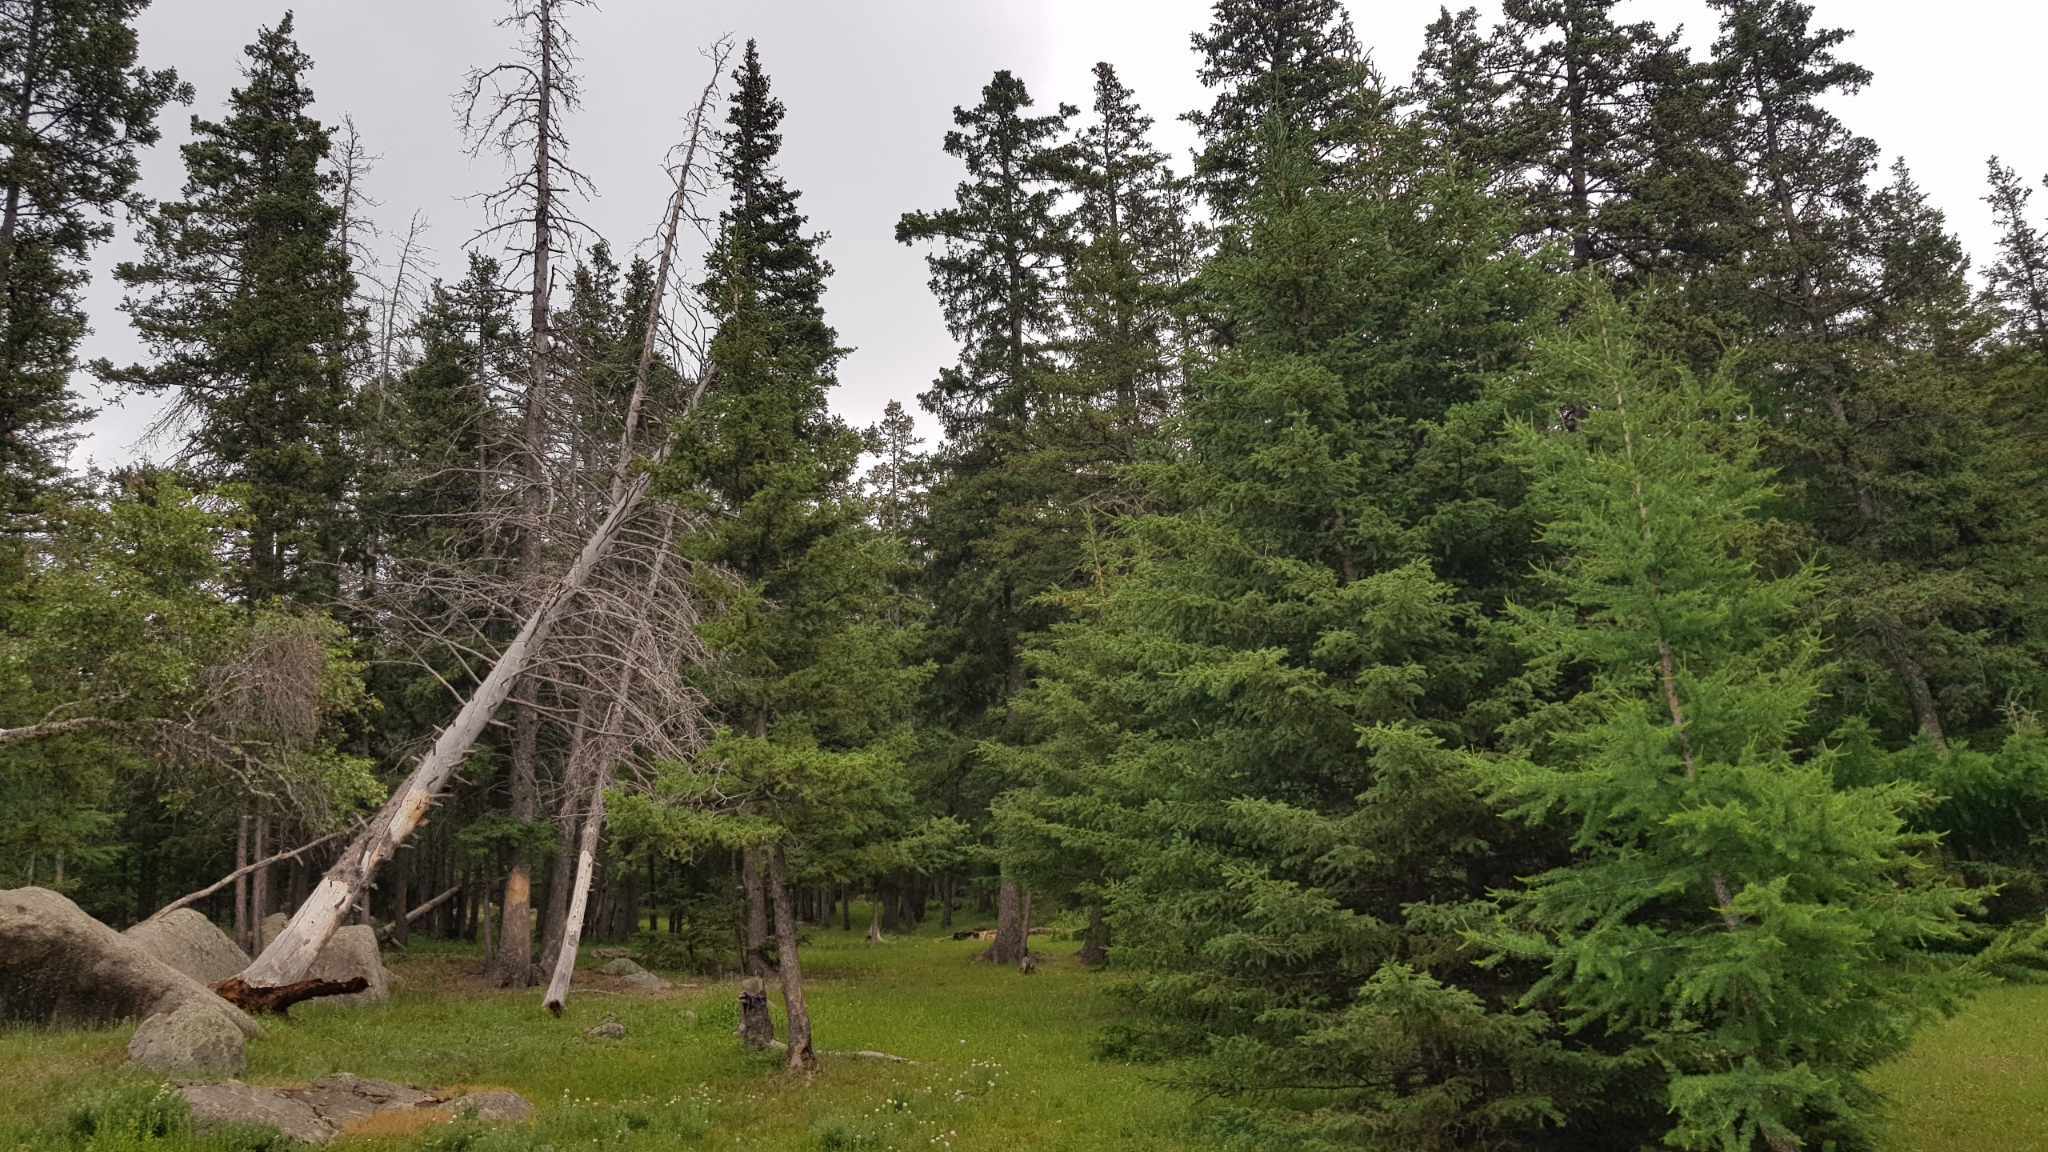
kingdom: Plantae
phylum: Tracheophyta
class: Pinopsida
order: Pinales
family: Pinaceae
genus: Picea
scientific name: Picea obovata
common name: Siberian spruce
